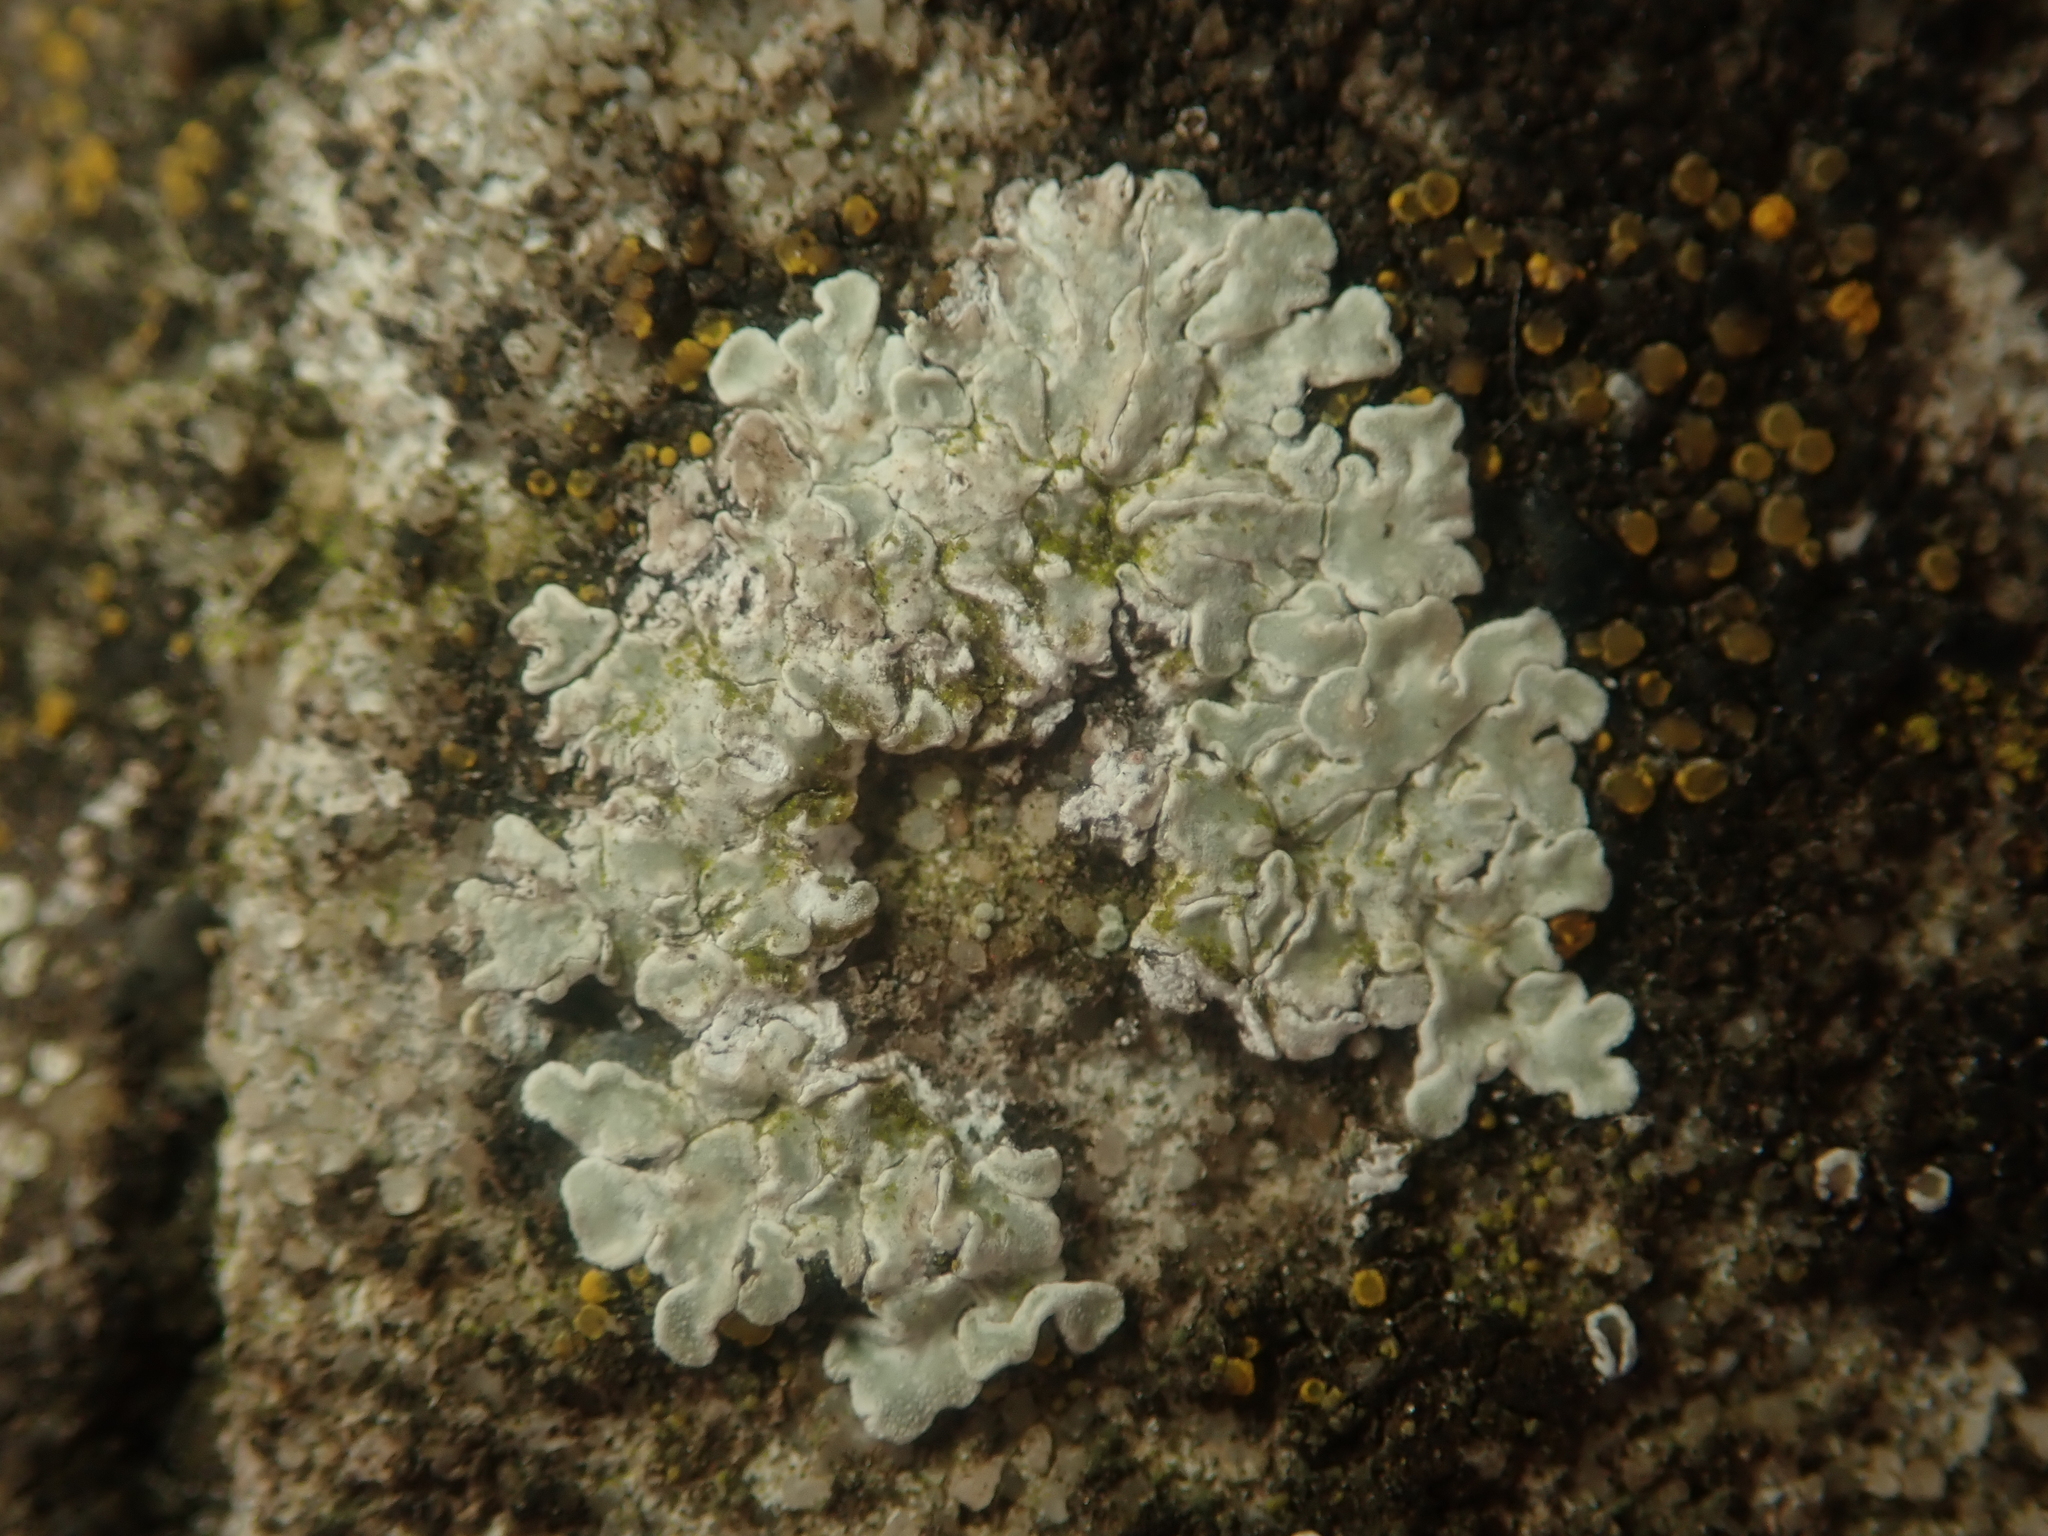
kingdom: Fungi
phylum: Ascomycota
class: Lecanoromycetes
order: Lecanorales
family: Lecanoraceae
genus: Protoparmeliopsis
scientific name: Protoparmeliopsis muralis
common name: Stonewall rim lichen
